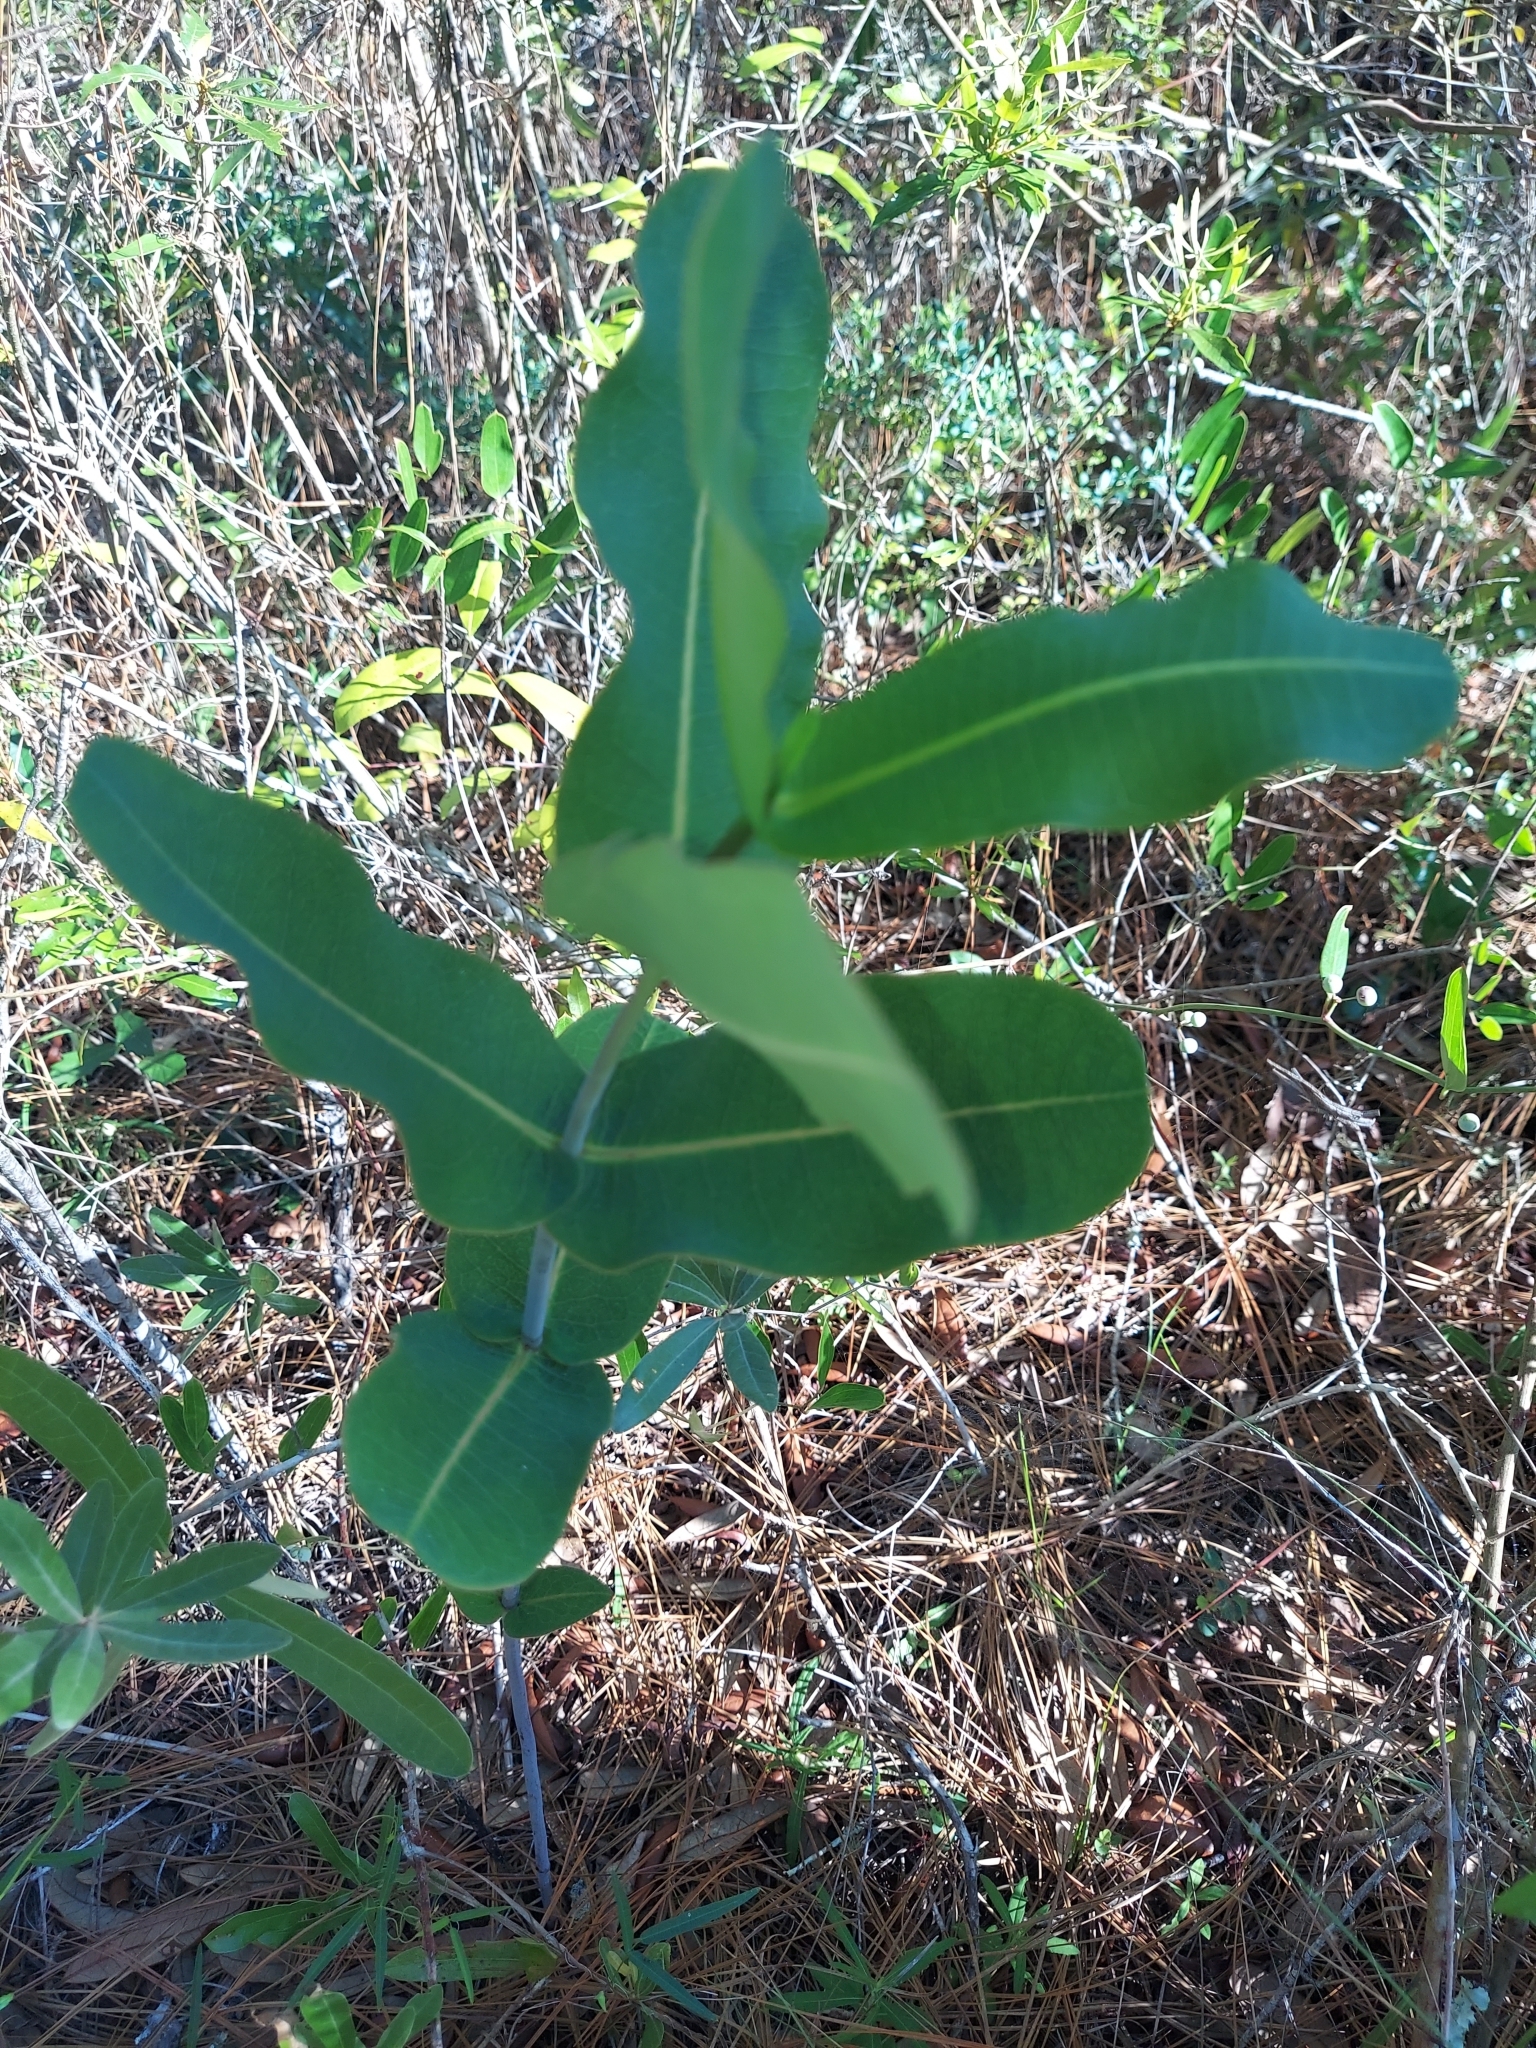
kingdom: Plantae
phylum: Tracheophyta
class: Magnoliopsida
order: Gentianales
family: Apocynaceae
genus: Asclepias
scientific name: Asclepias amplexicaulis
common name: Blunt-leaf milkweed
